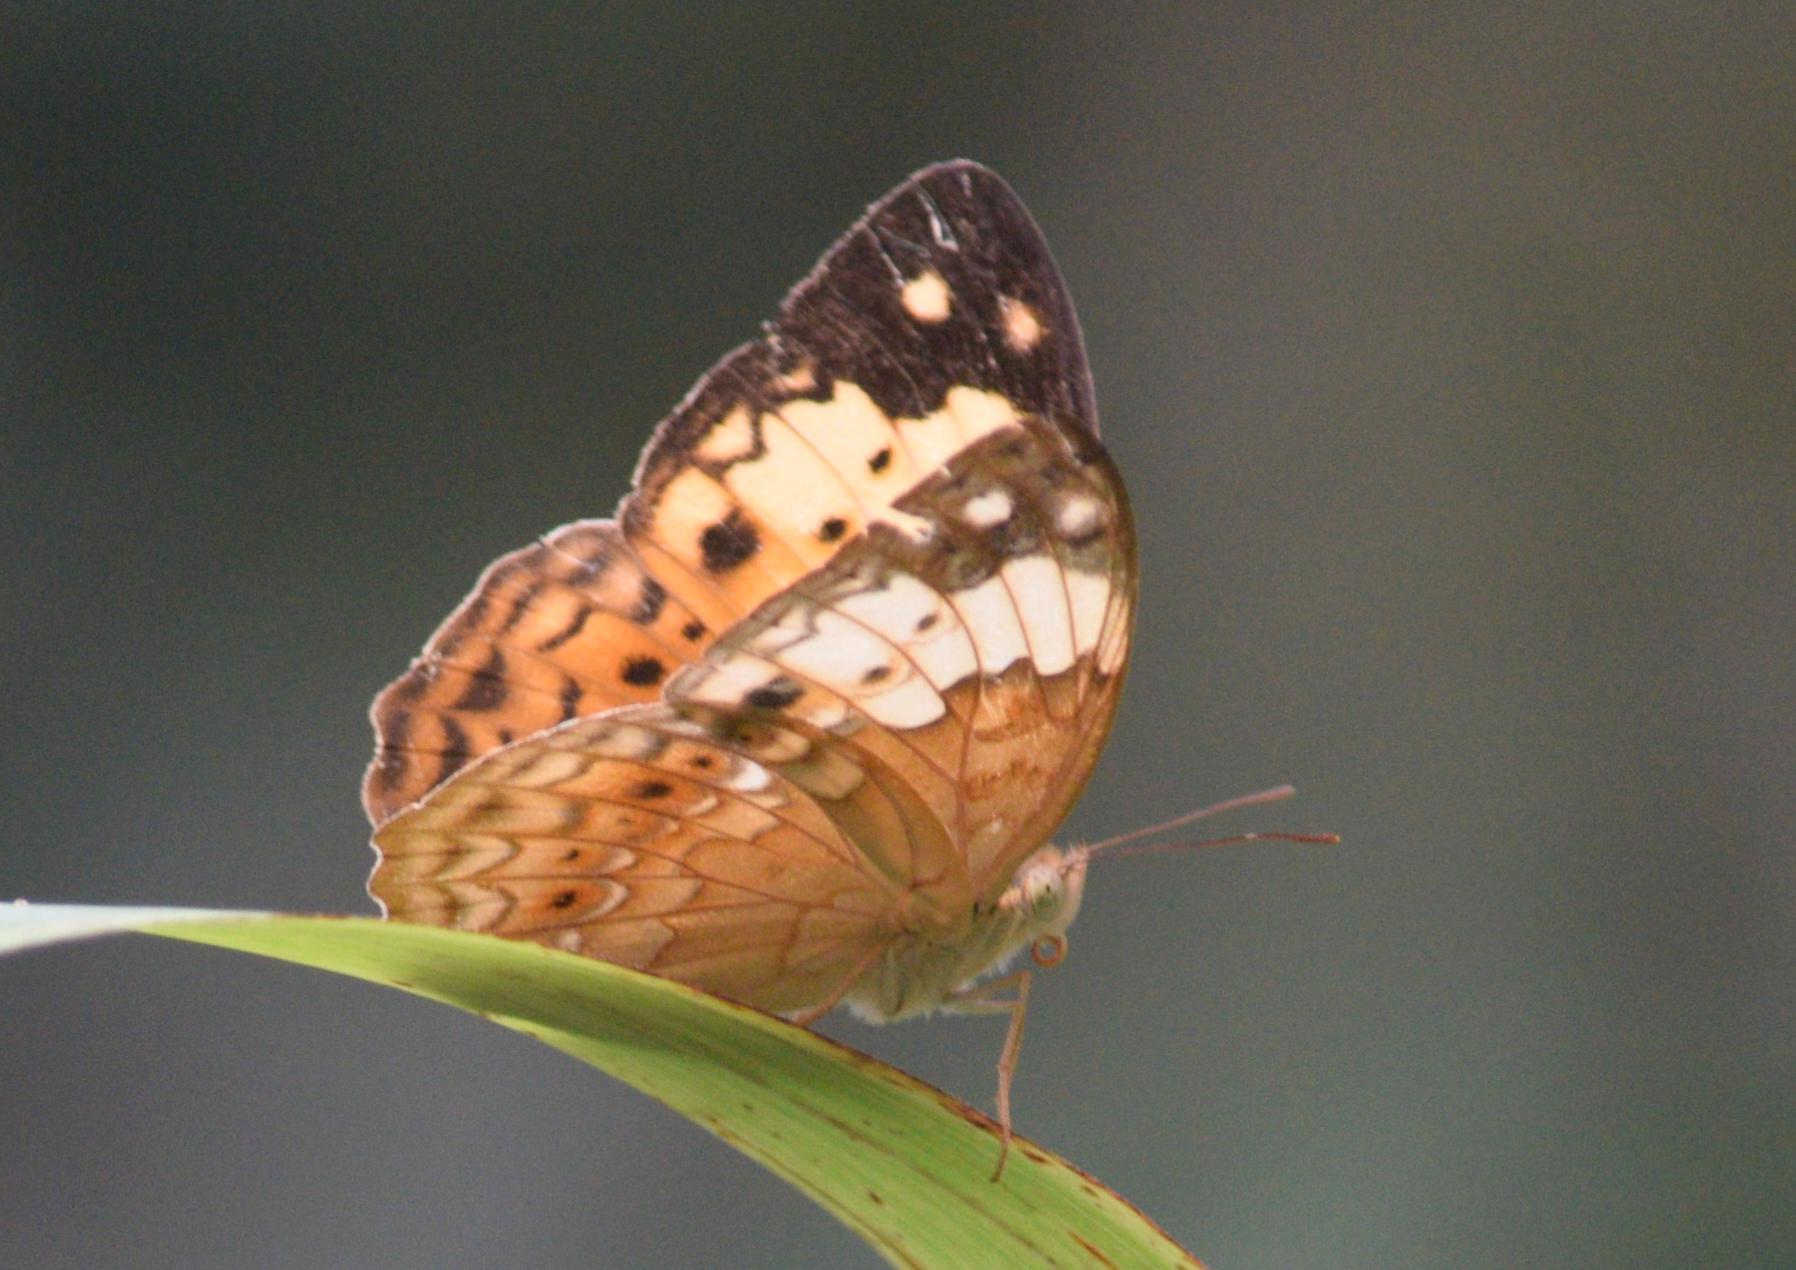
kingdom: Animalia
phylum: Arthropoda
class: Insecta
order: Lepidoptera
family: Nymphalidae
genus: Cupha
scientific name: Cupha erymanthis
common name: Rustic
